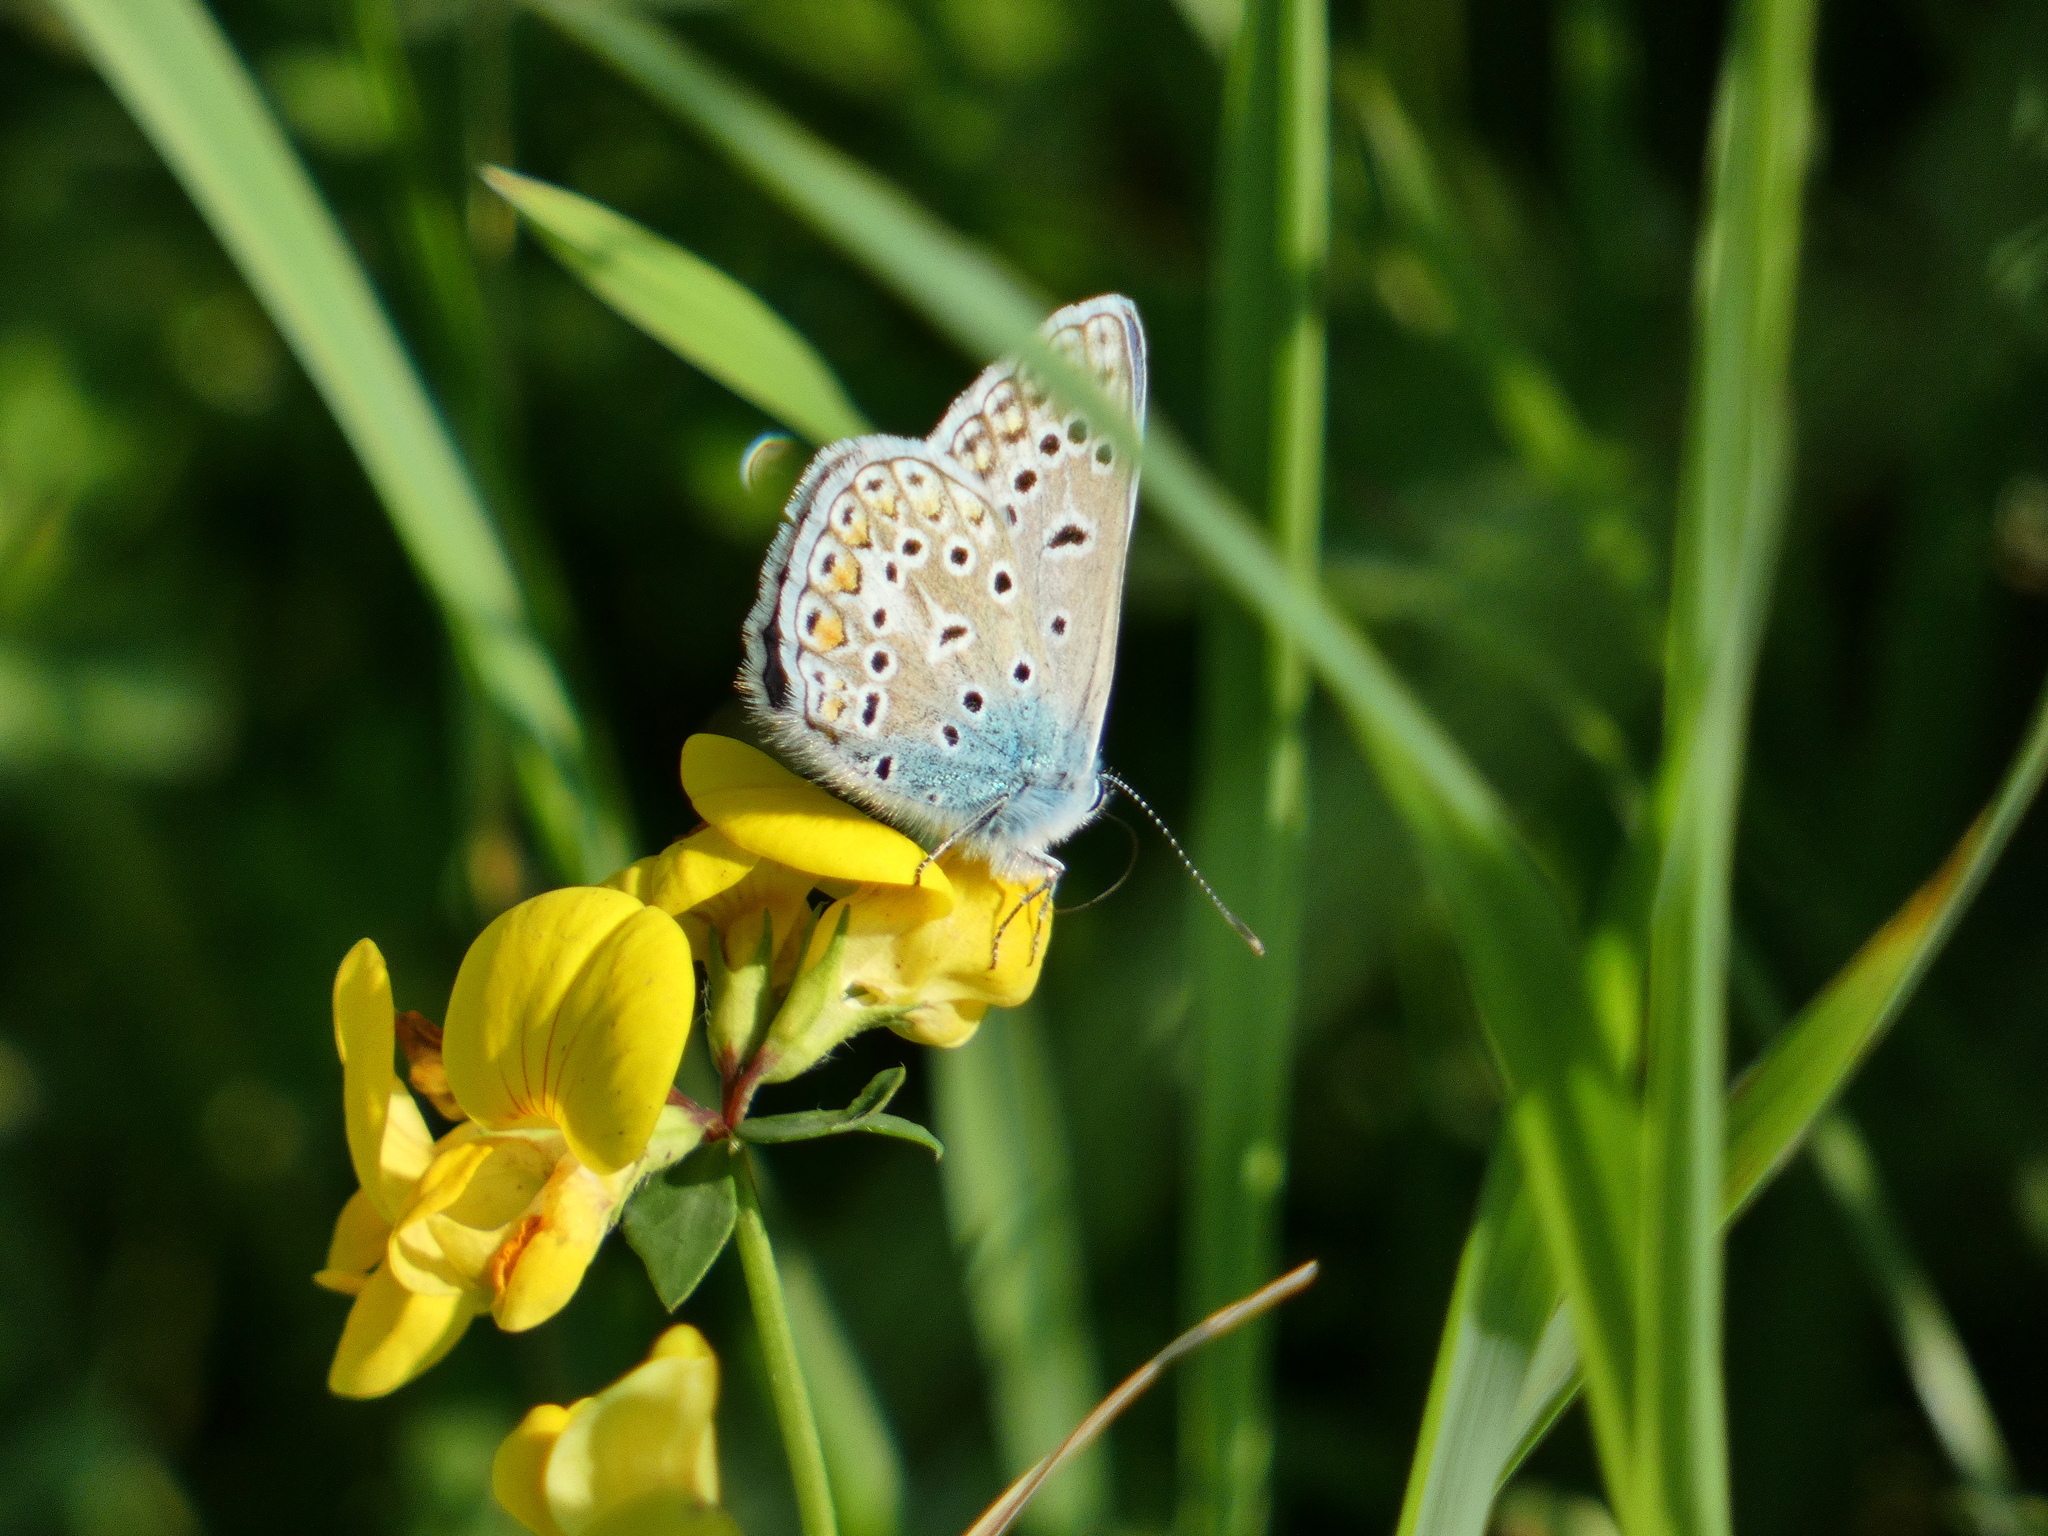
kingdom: Animalia
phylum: Arthropoda
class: Insecta
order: Lepidoptera
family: Lycaenidae
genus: Polyommatus
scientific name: Polyommatus icarus
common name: Common blue
